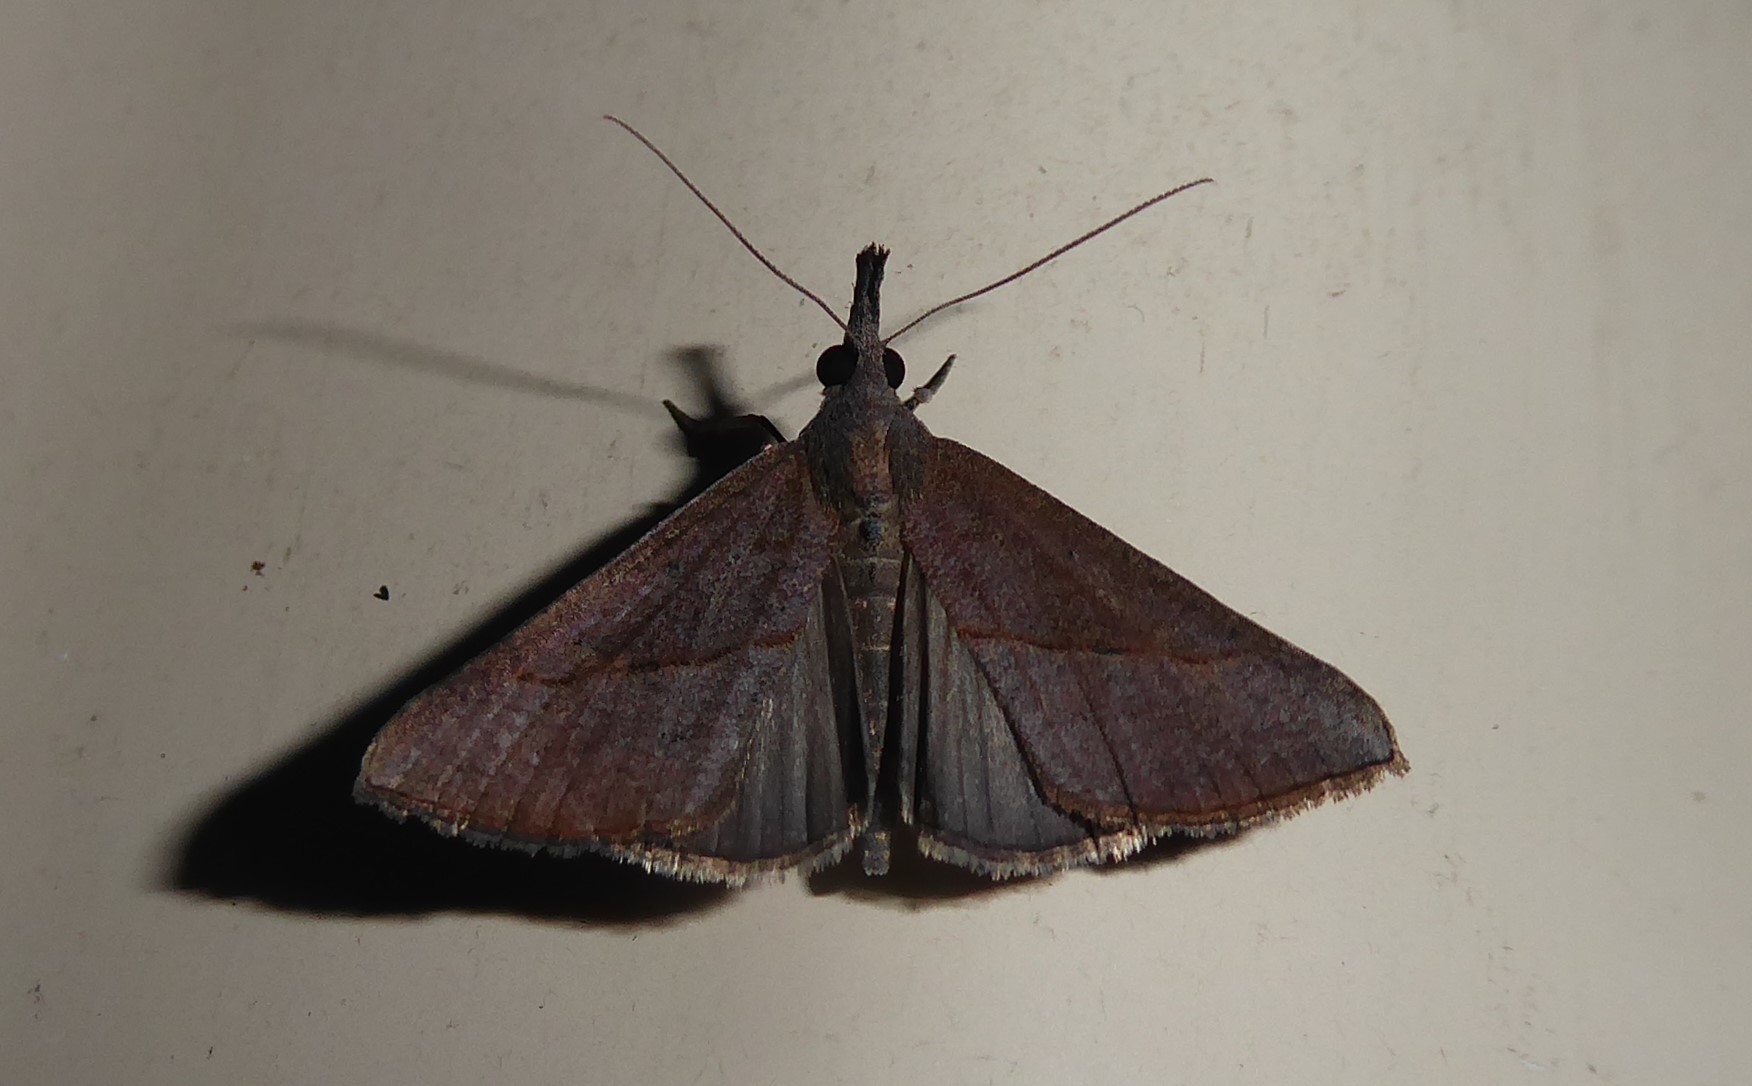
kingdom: Animalia
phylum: Arthropoda
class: Insecta
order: Lepidoptera
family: Erebidae
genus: Hypena
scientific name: Hypena lividalis
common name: Chevron snout
